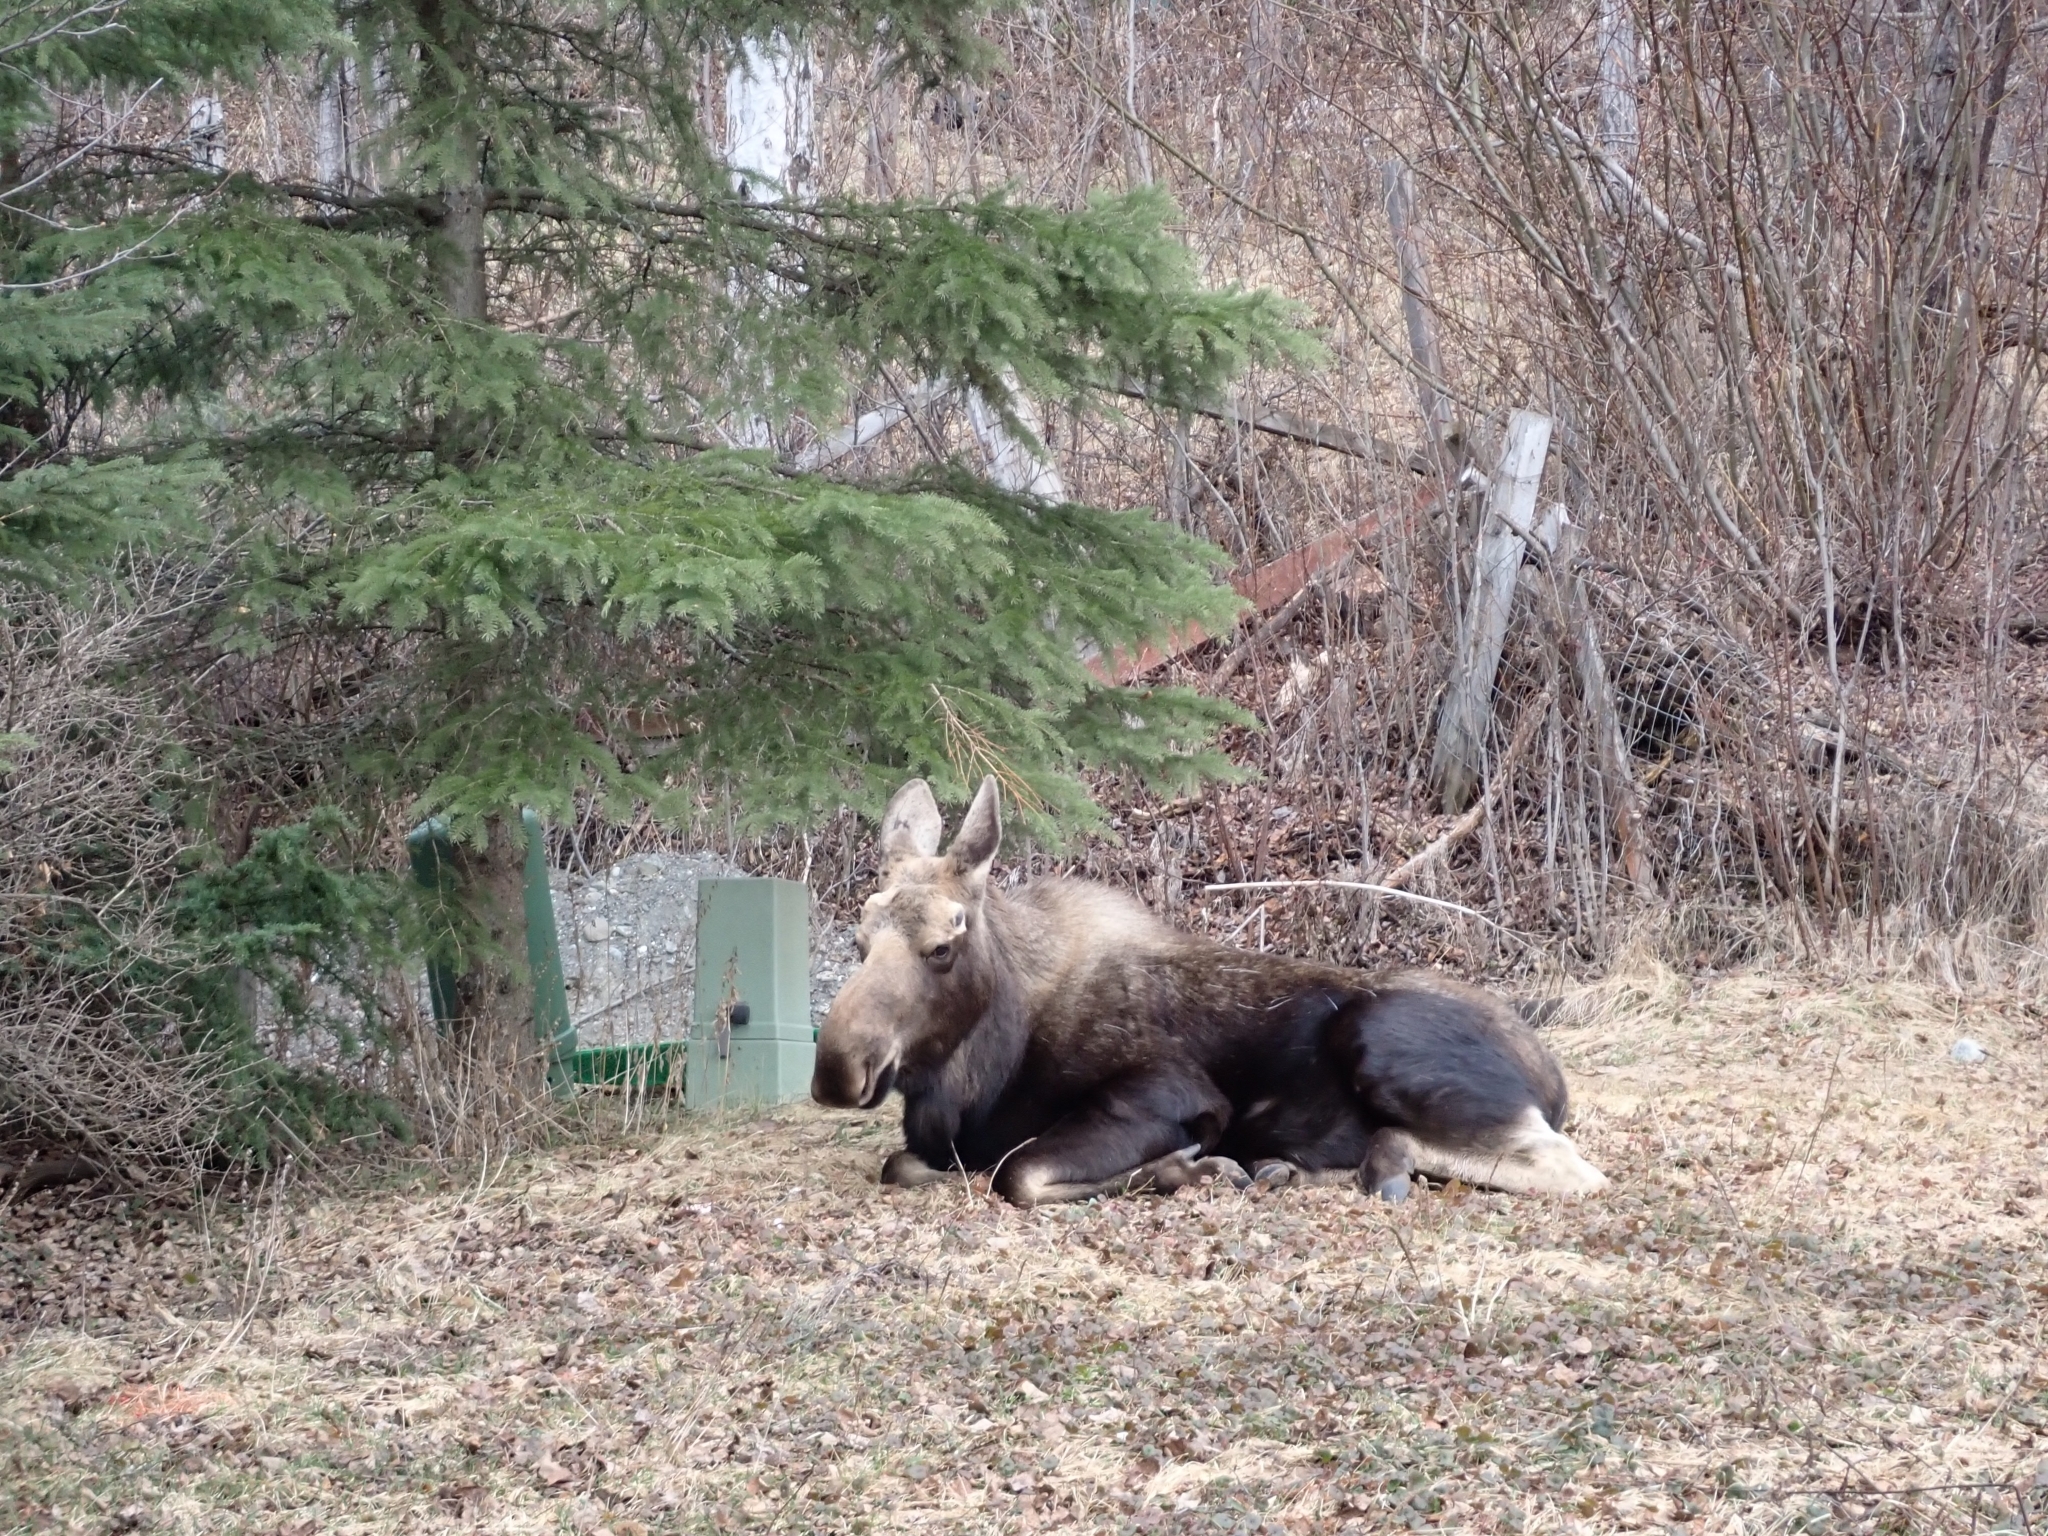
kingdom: Animalia
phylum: Chordata
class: Mammalia
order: Artiodactyla
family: Cervidae
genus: Alces
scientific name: Alces alces
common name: Moose
